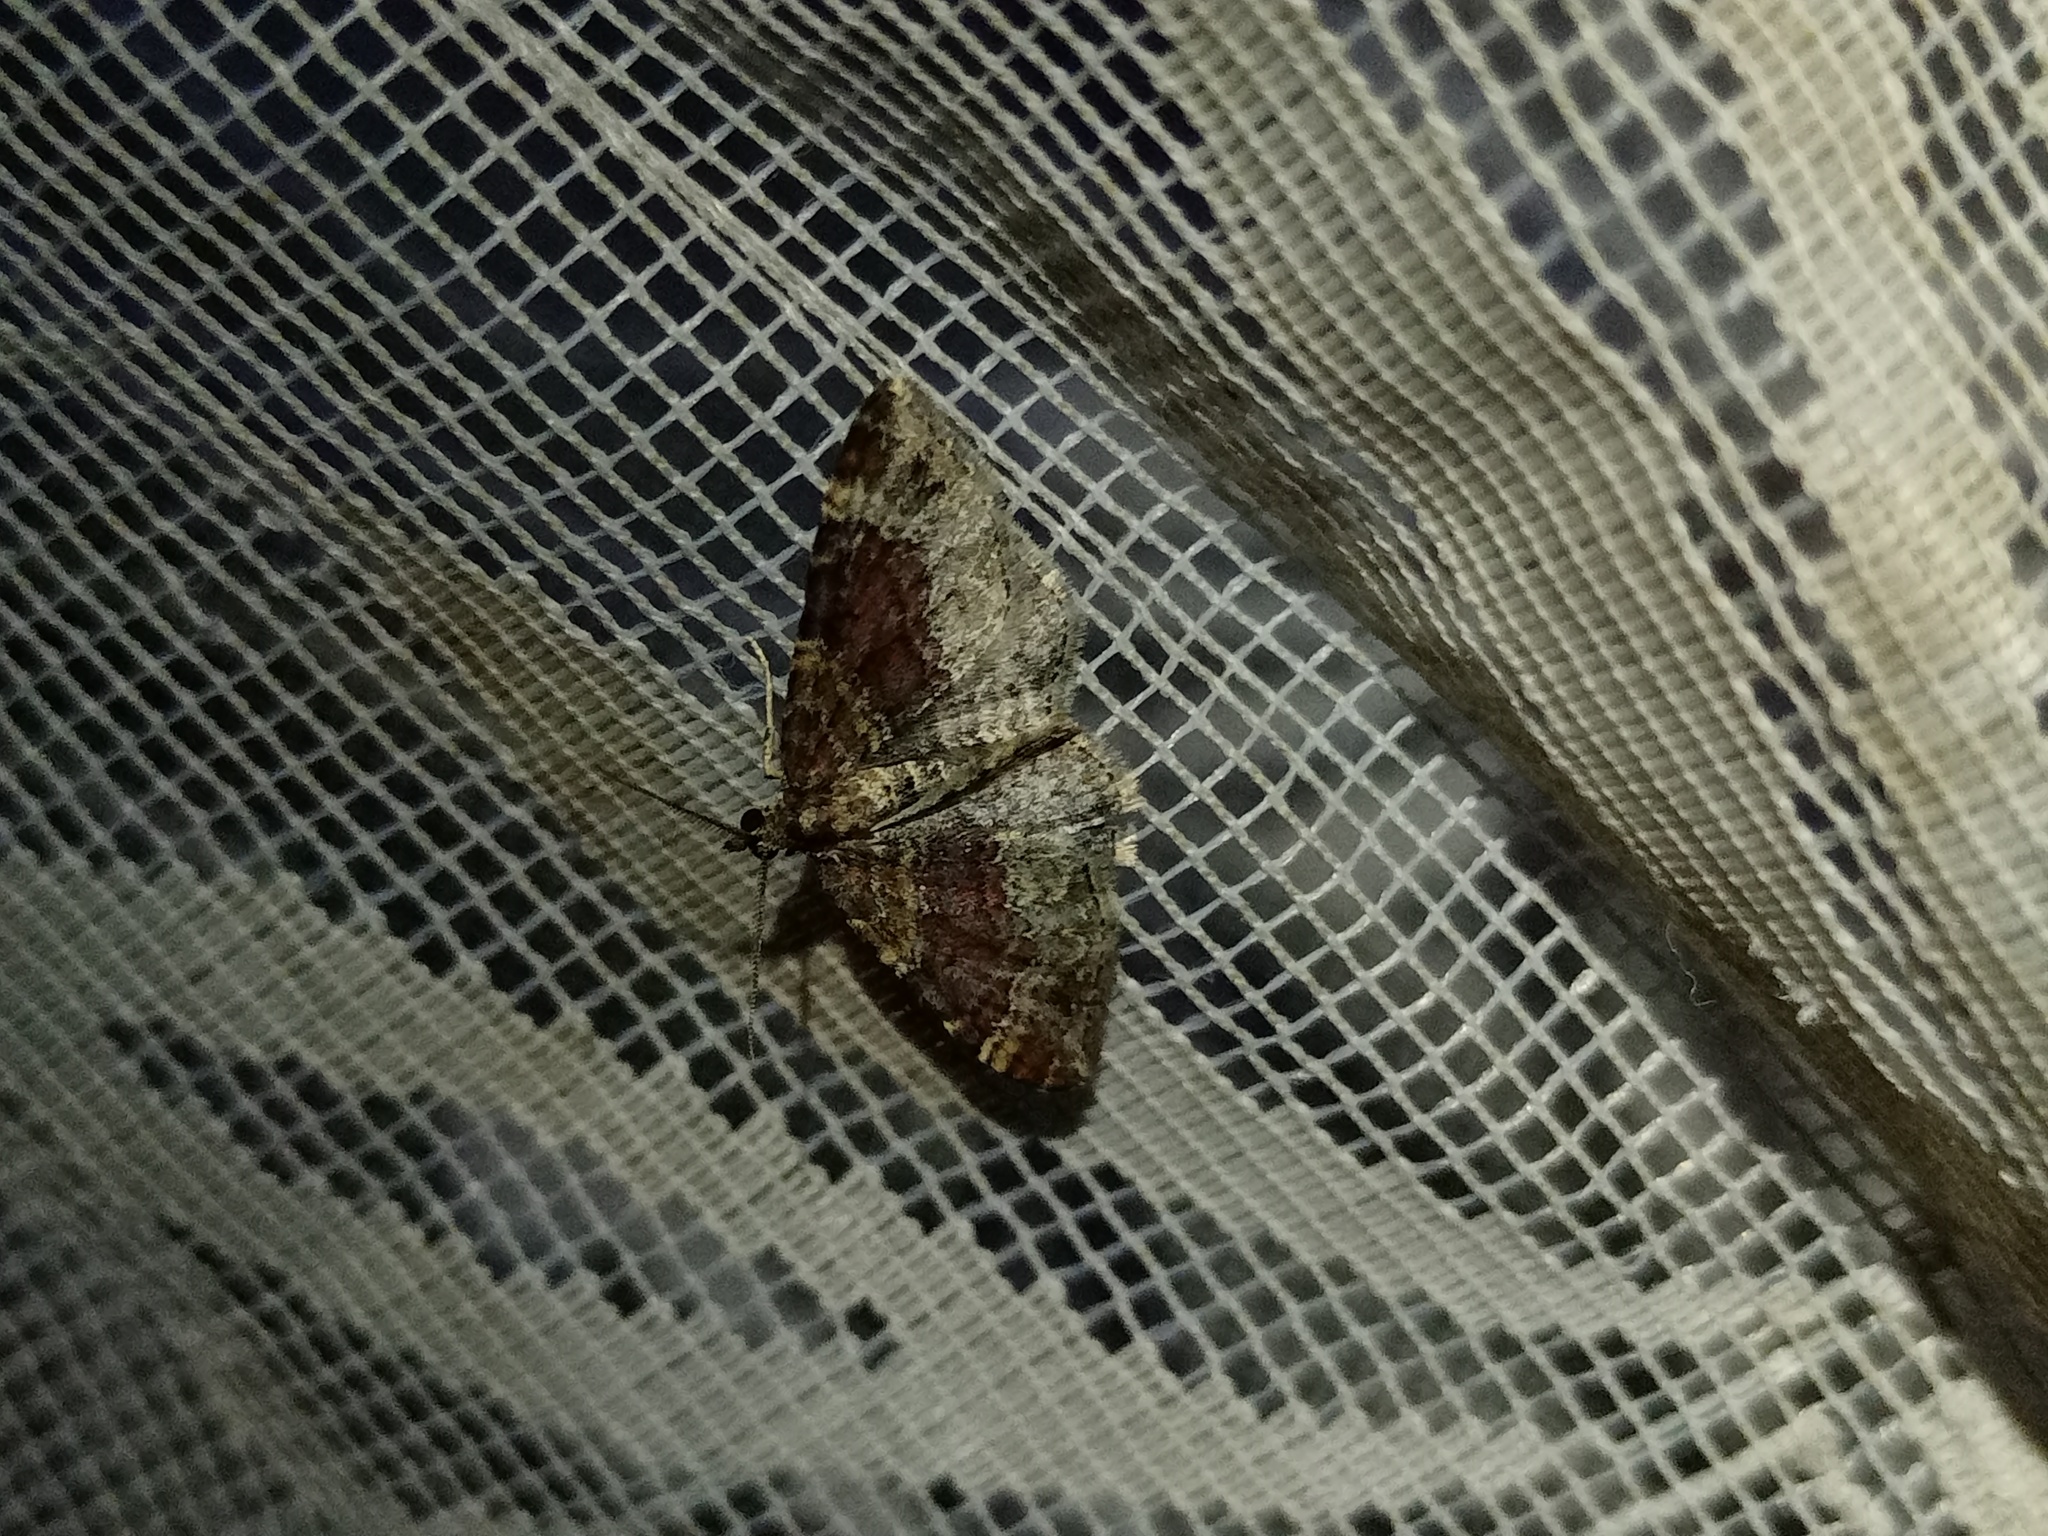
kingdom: Animalia
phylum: Arthropoda
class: Insecta
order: Lepidoptera
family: Geometridae
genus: Xanthorhoe
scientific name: Xanthorhoe spadicearia
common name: Red twin-spot carpet
